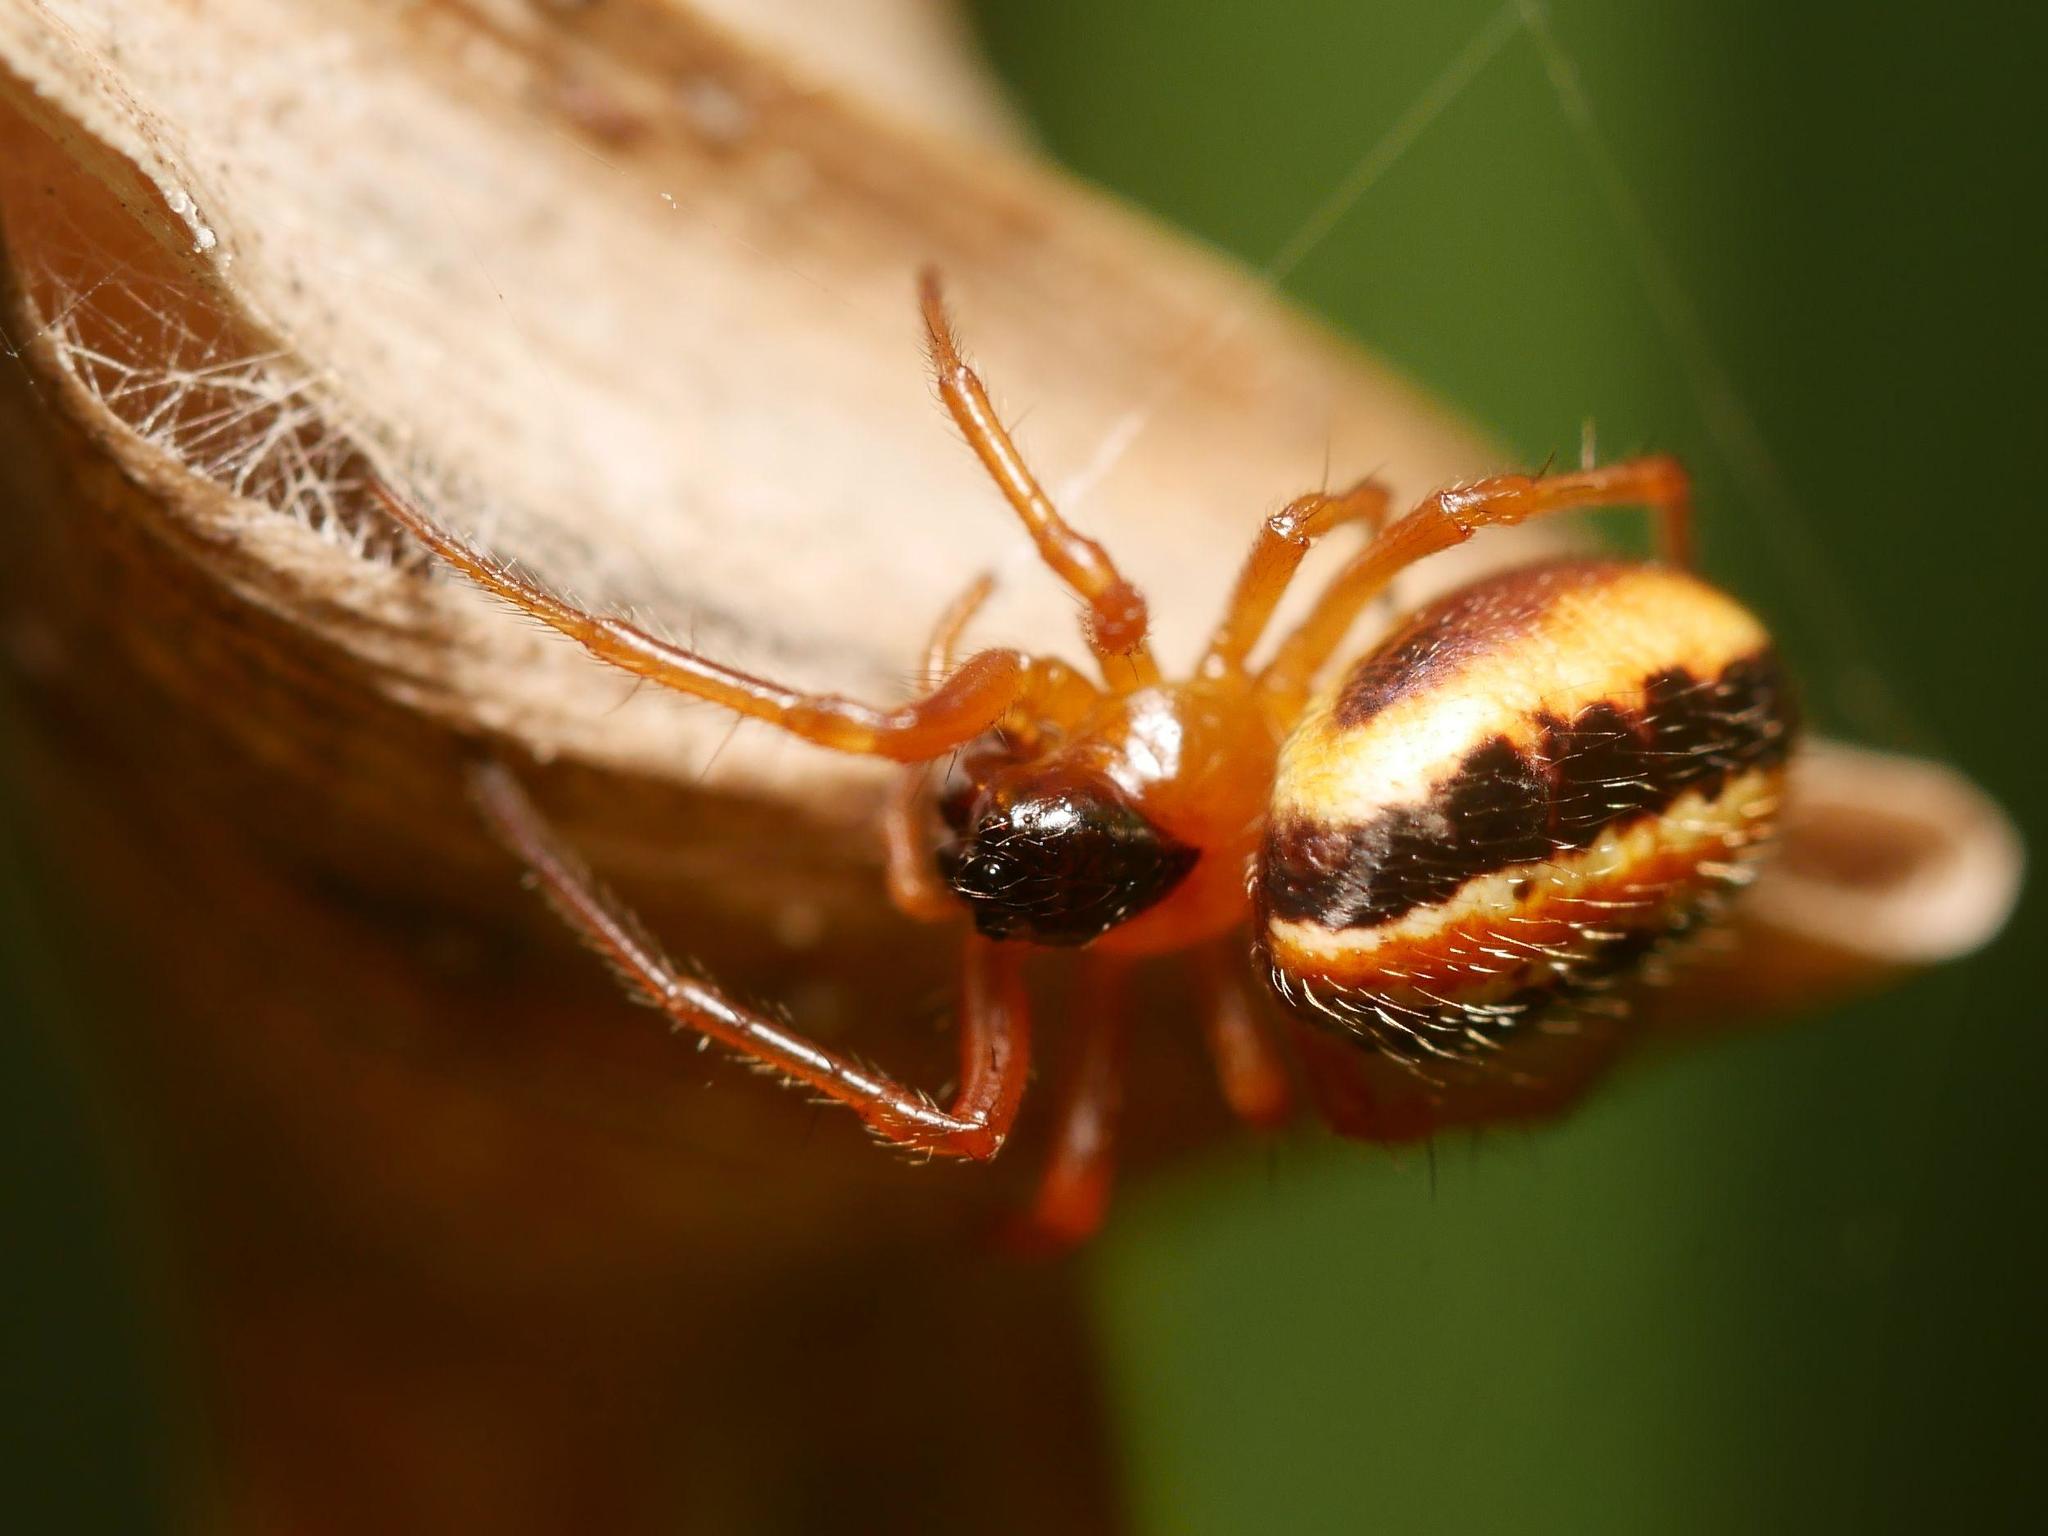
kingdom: Animalia
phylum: Arthropoda
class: Arachnida
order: Araneae
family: Araneidae
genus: Hypsosinga
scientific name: Hypsosinga heri
